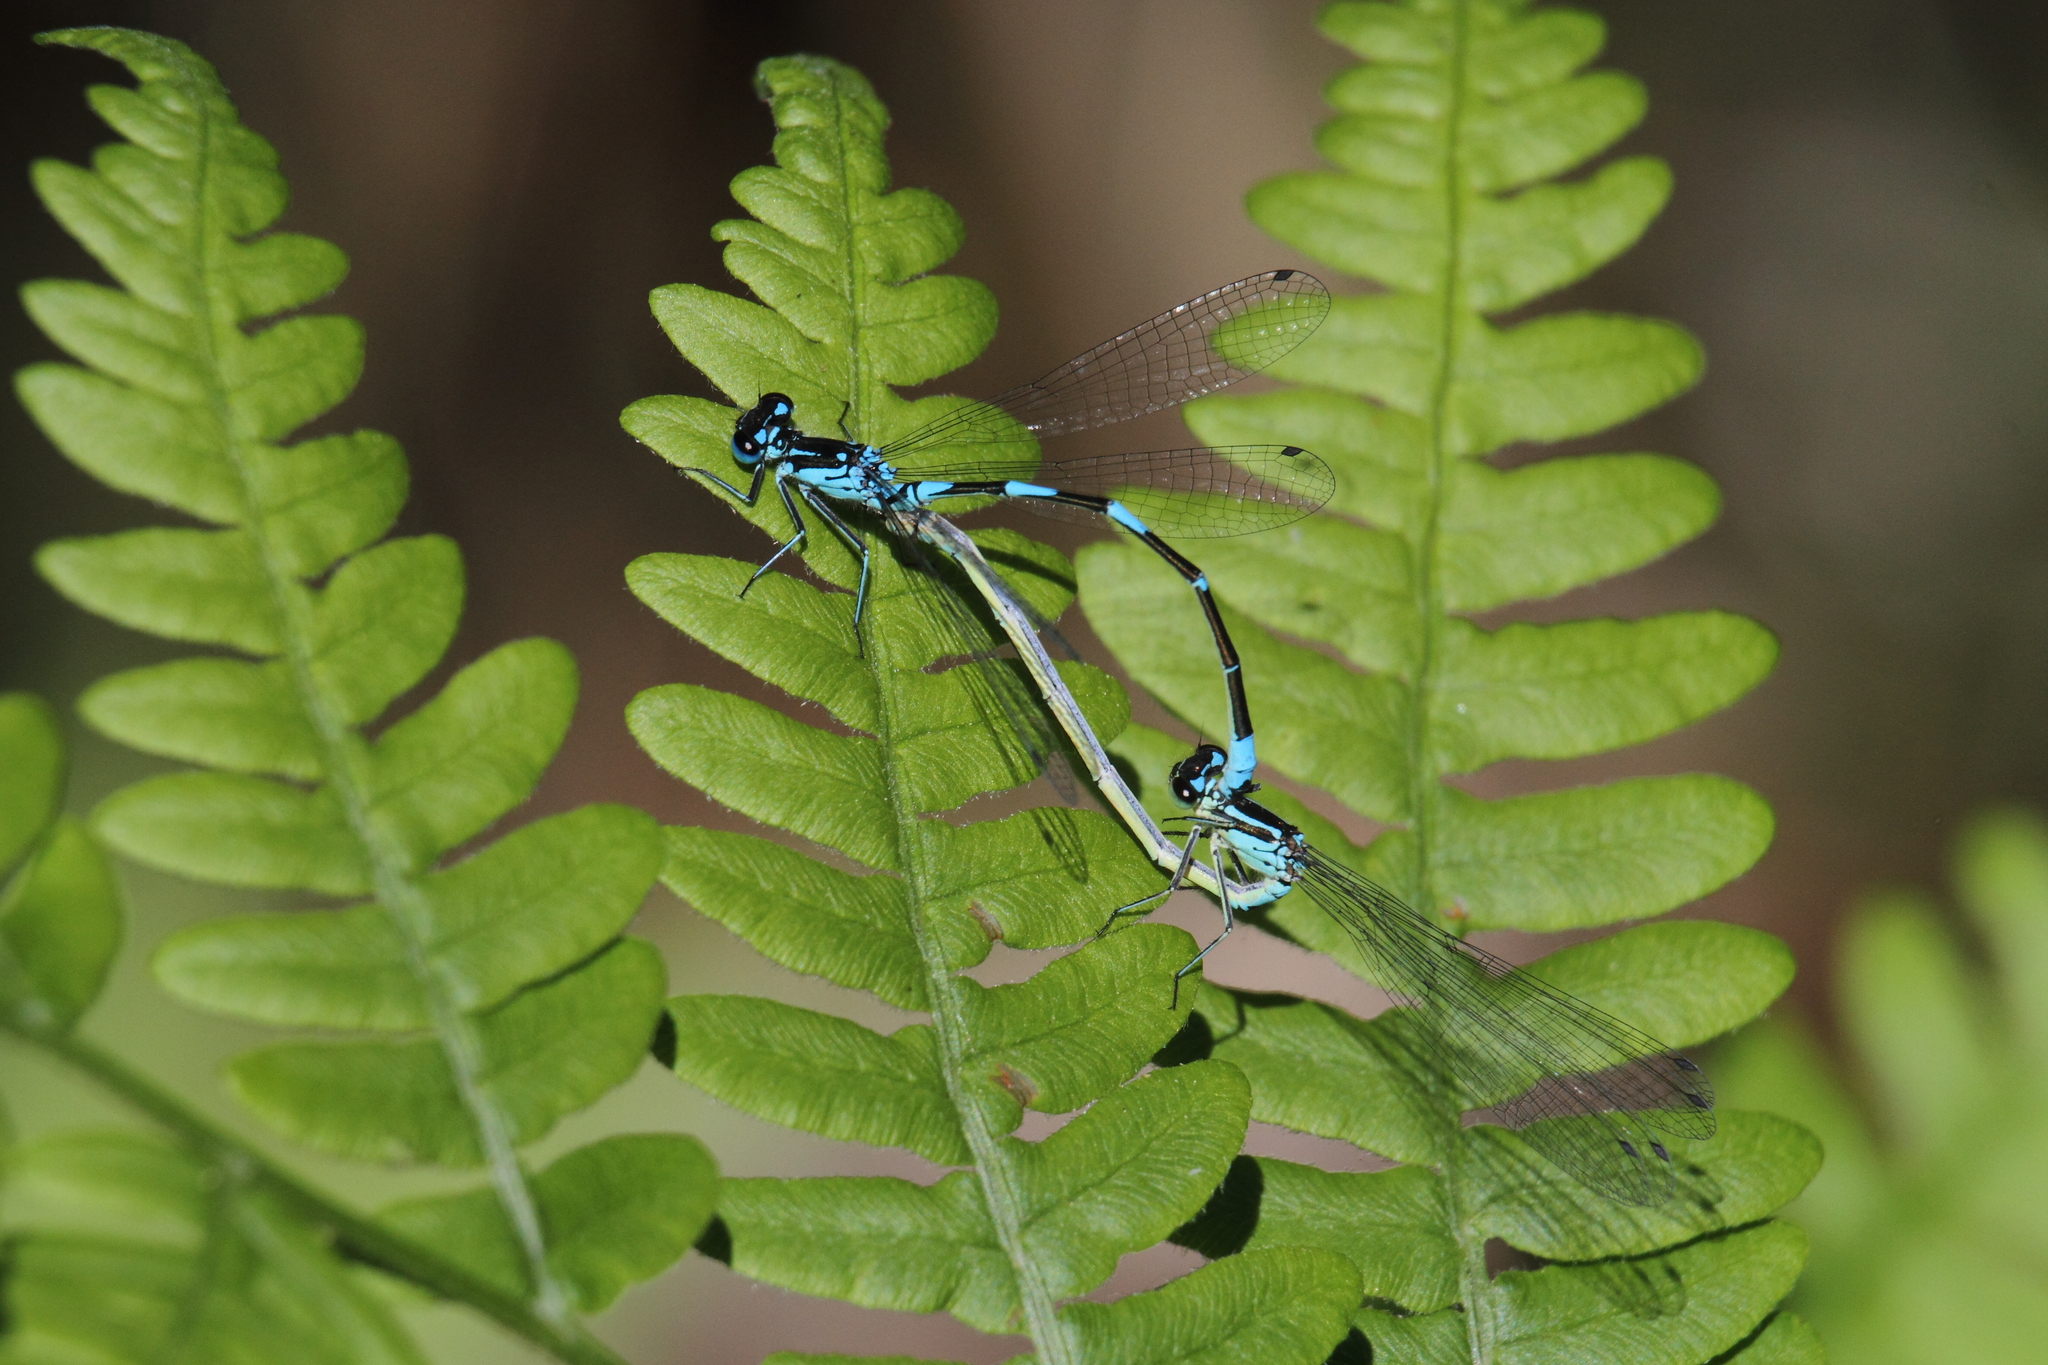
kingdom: Animalia
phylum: Arthropoda
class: Insecta
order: Odonata
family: Coenagrionidae
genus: Coenagrion
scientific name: Coenagrion pulchellum
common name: Variable bluet
